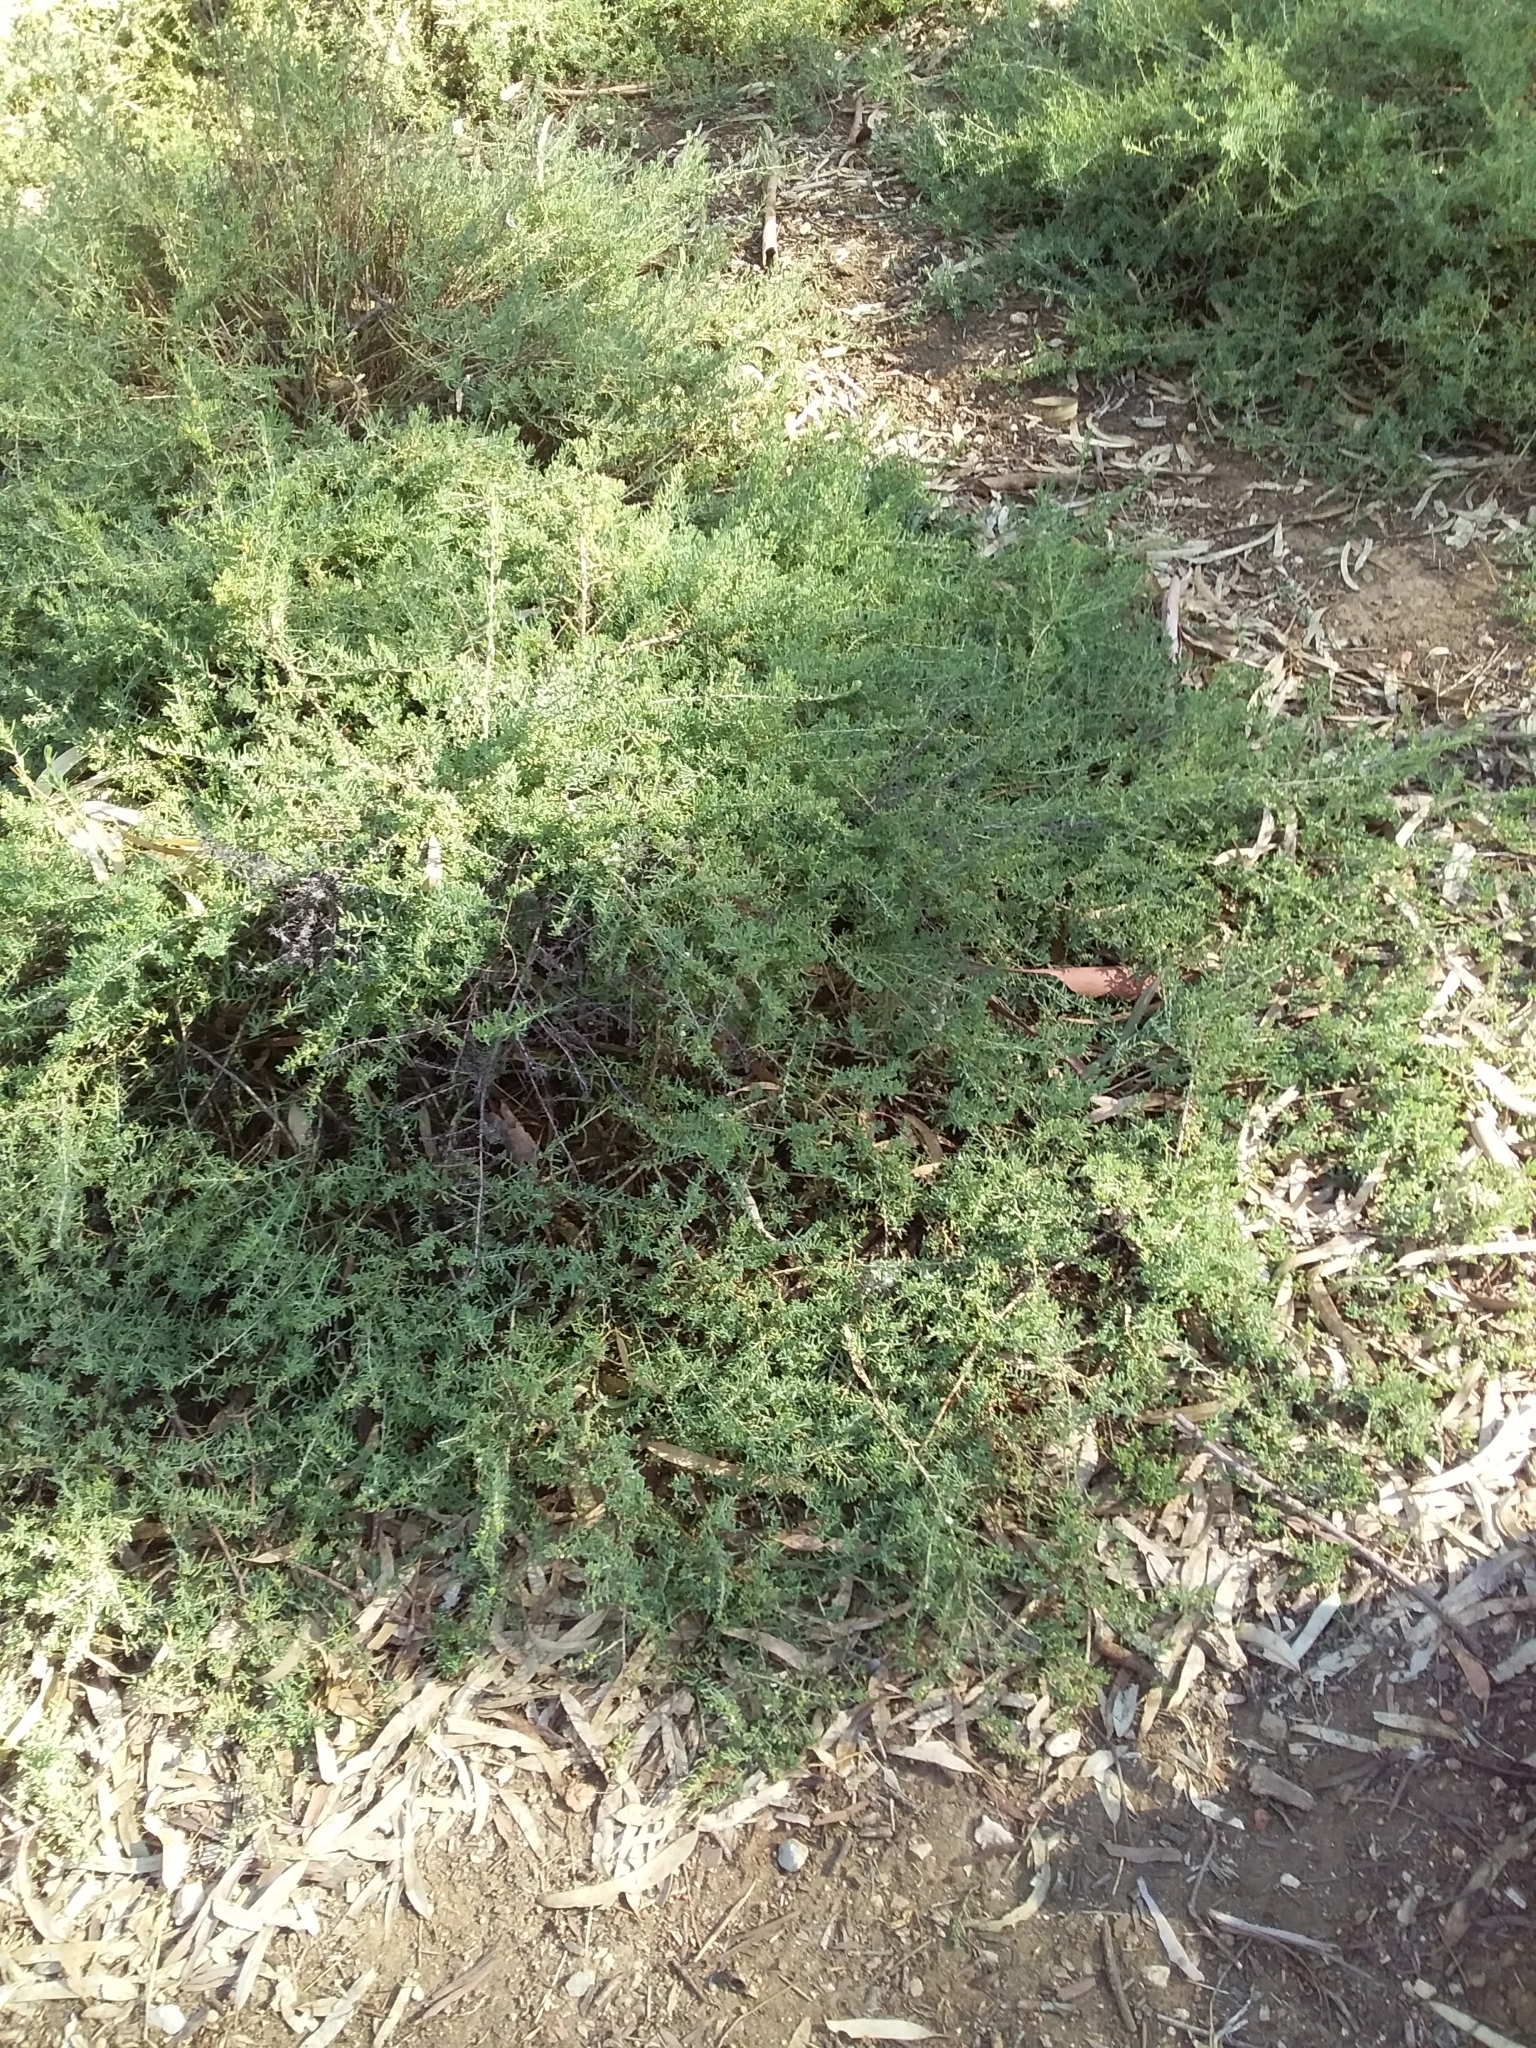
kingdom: Plantae
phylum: Tracheophyta
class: Magnoliopsida
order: Caryophyllales
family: Amaranthaceae
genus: Enchylaena
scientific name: Enchylaena tomentosa
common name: Ruby saltbush
